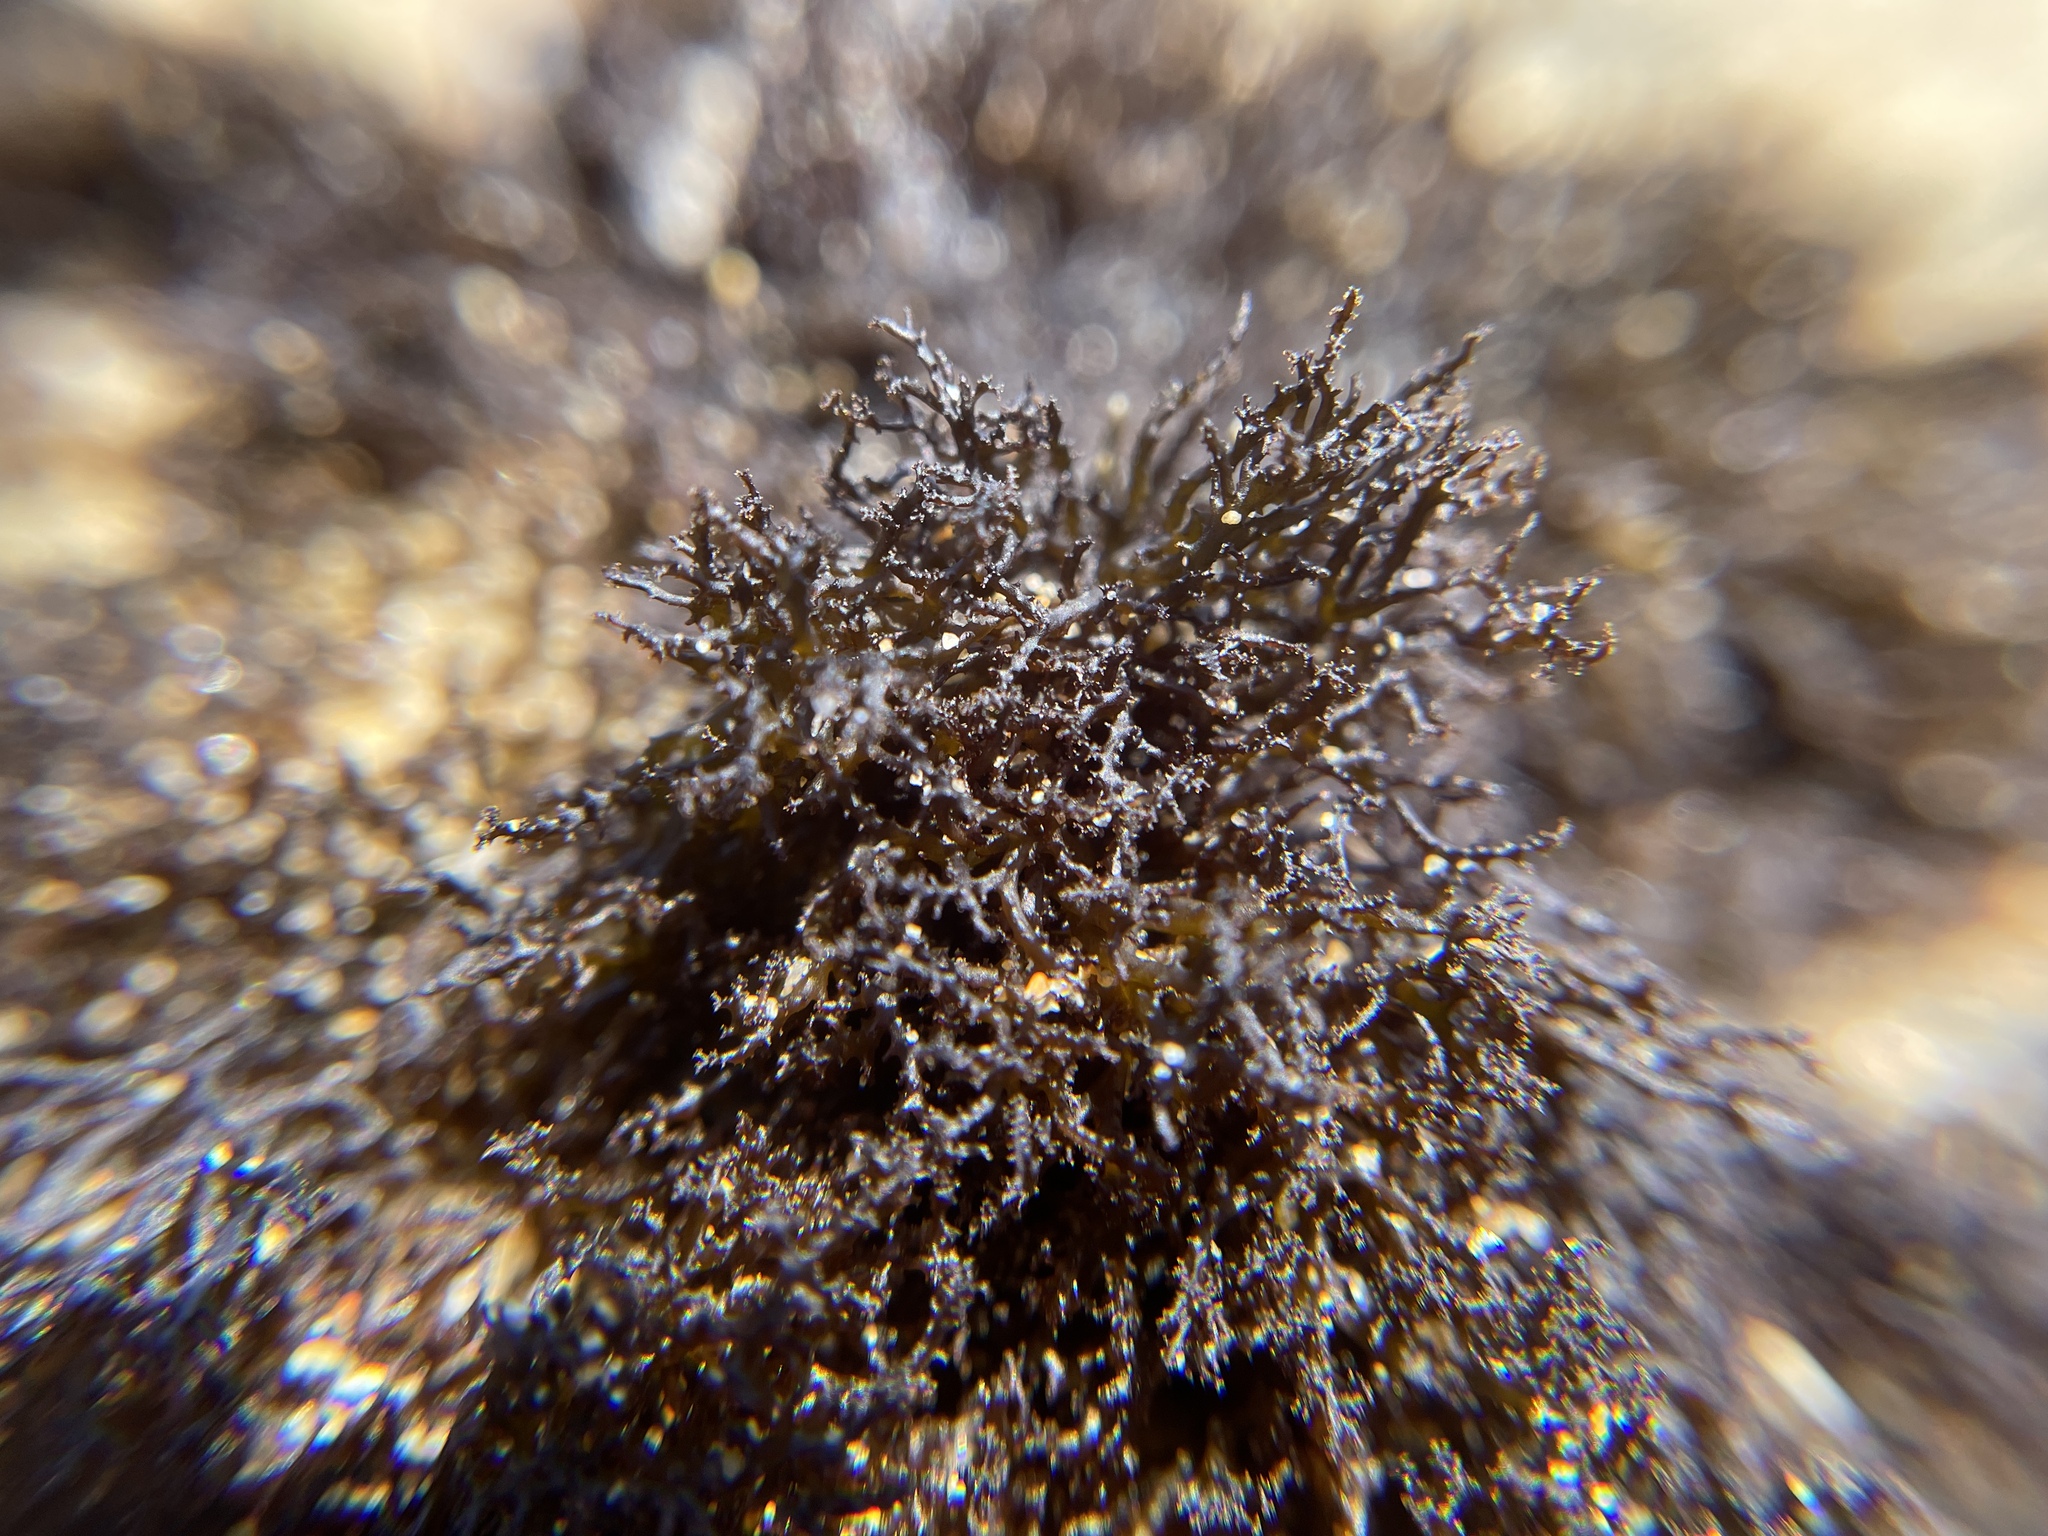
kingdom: Plantae
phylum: Rhodophyta
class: Florideophyceae
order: Gigartinales
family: Endocladiaceae
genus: Endocladia
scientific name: Endocladia muricata
